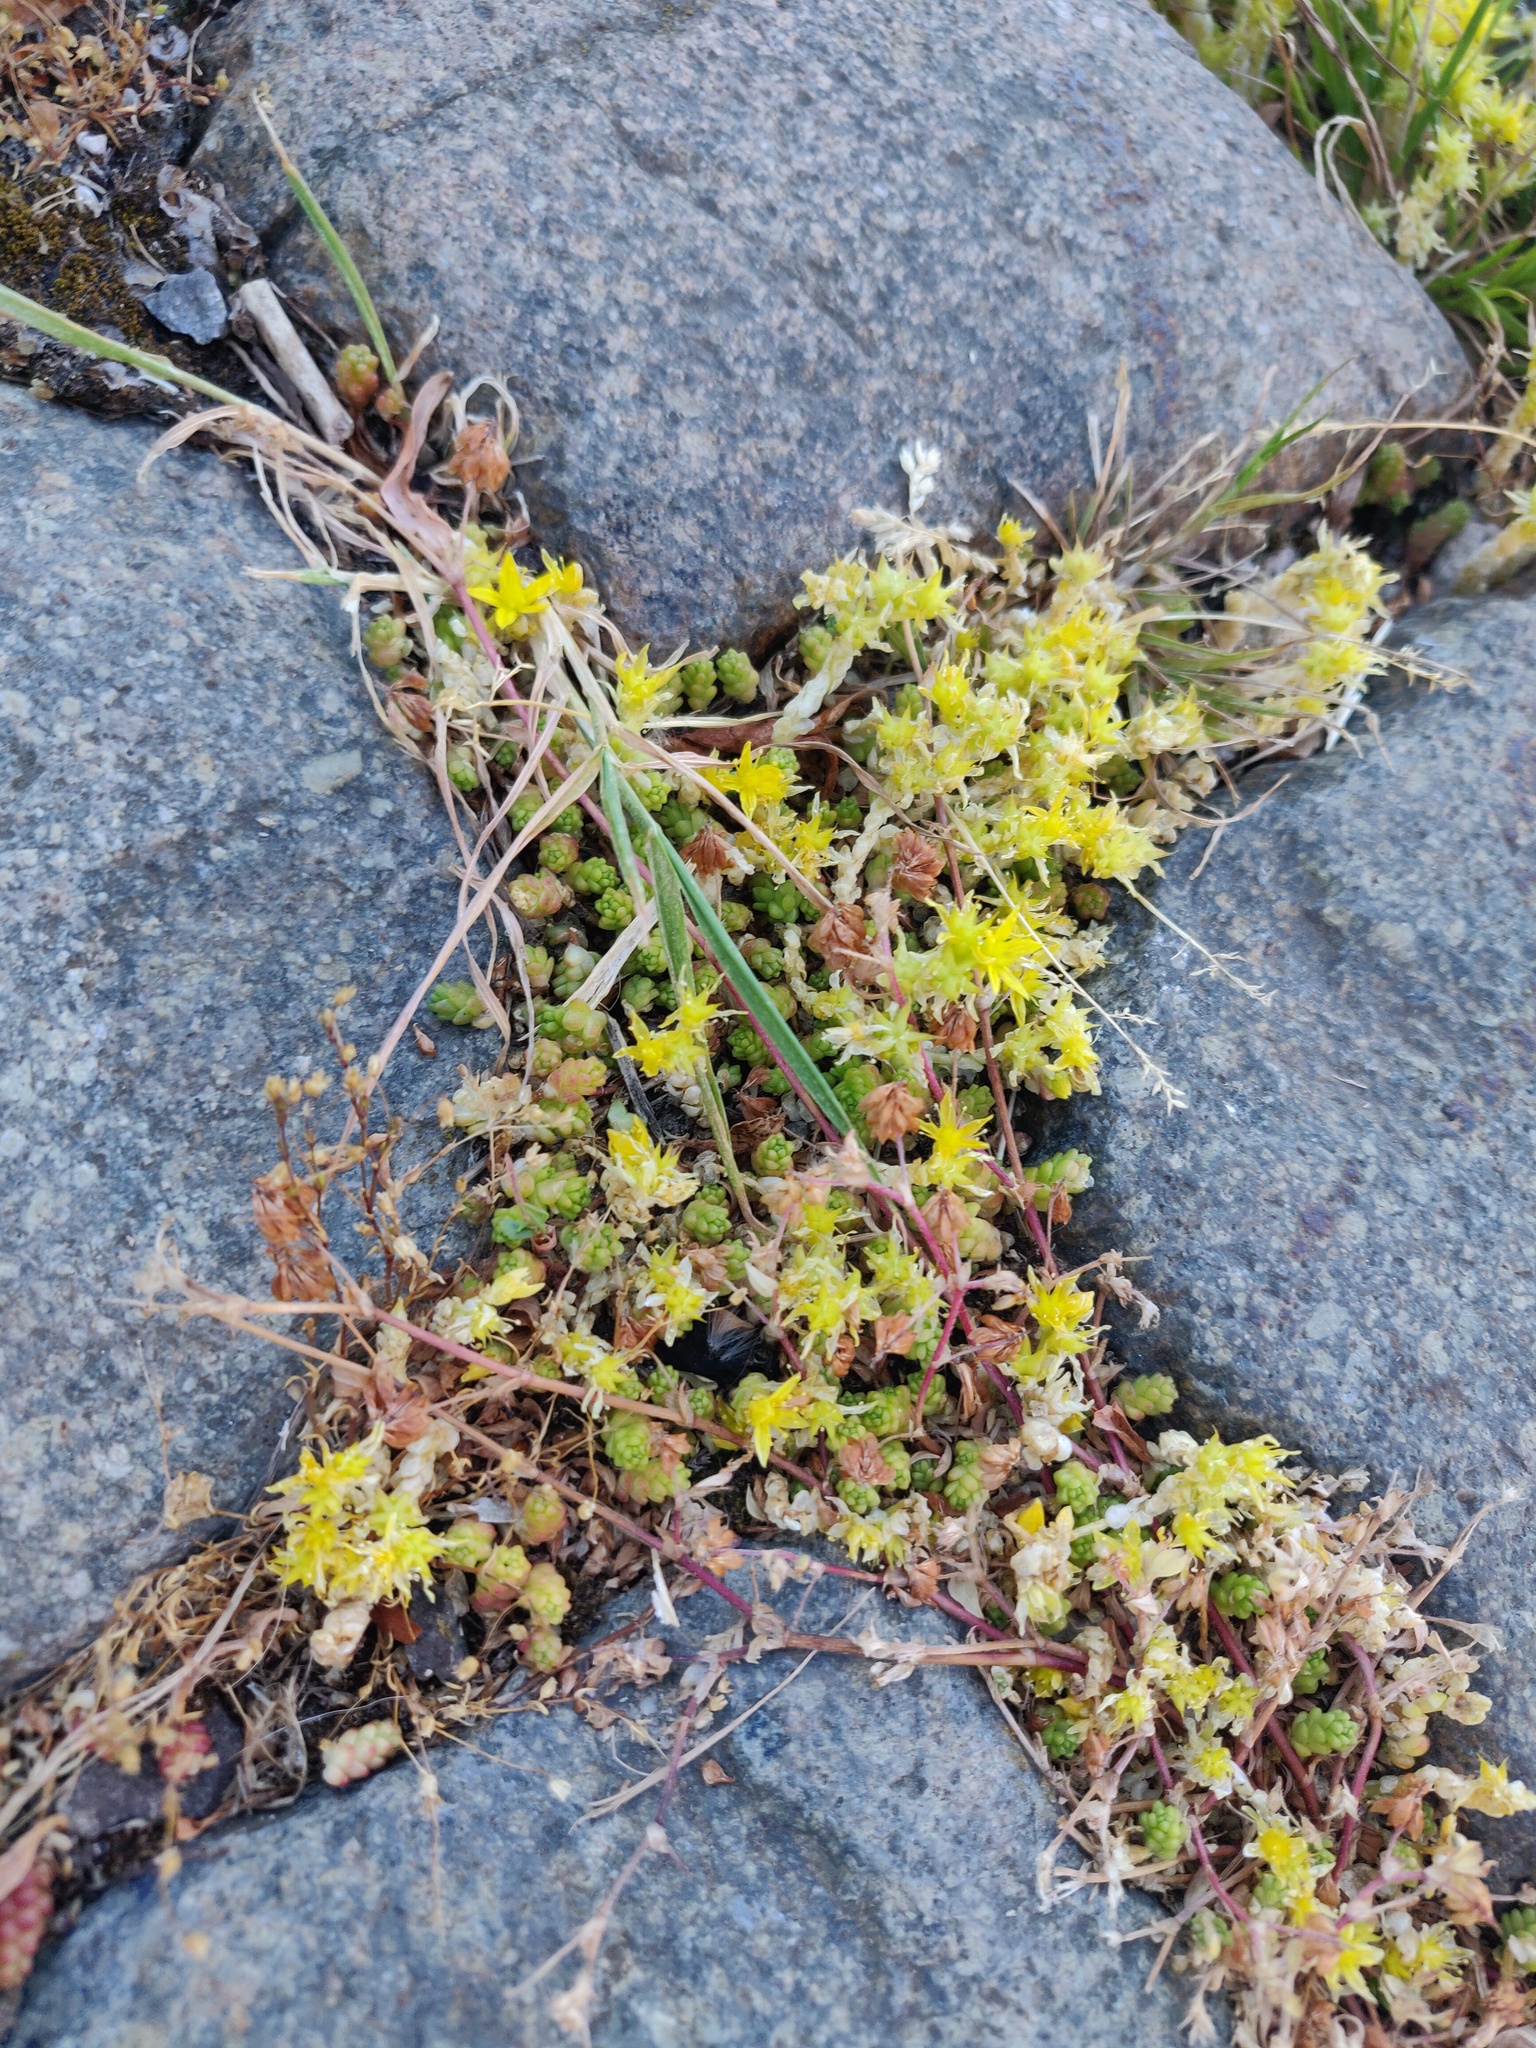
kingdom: Plantae
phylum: Tracheophyta
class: Magnoliopsida
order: Saxifragales
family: Crassulaceae
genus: Sedum
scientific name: Sedum acre
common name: Biting stonecrop
